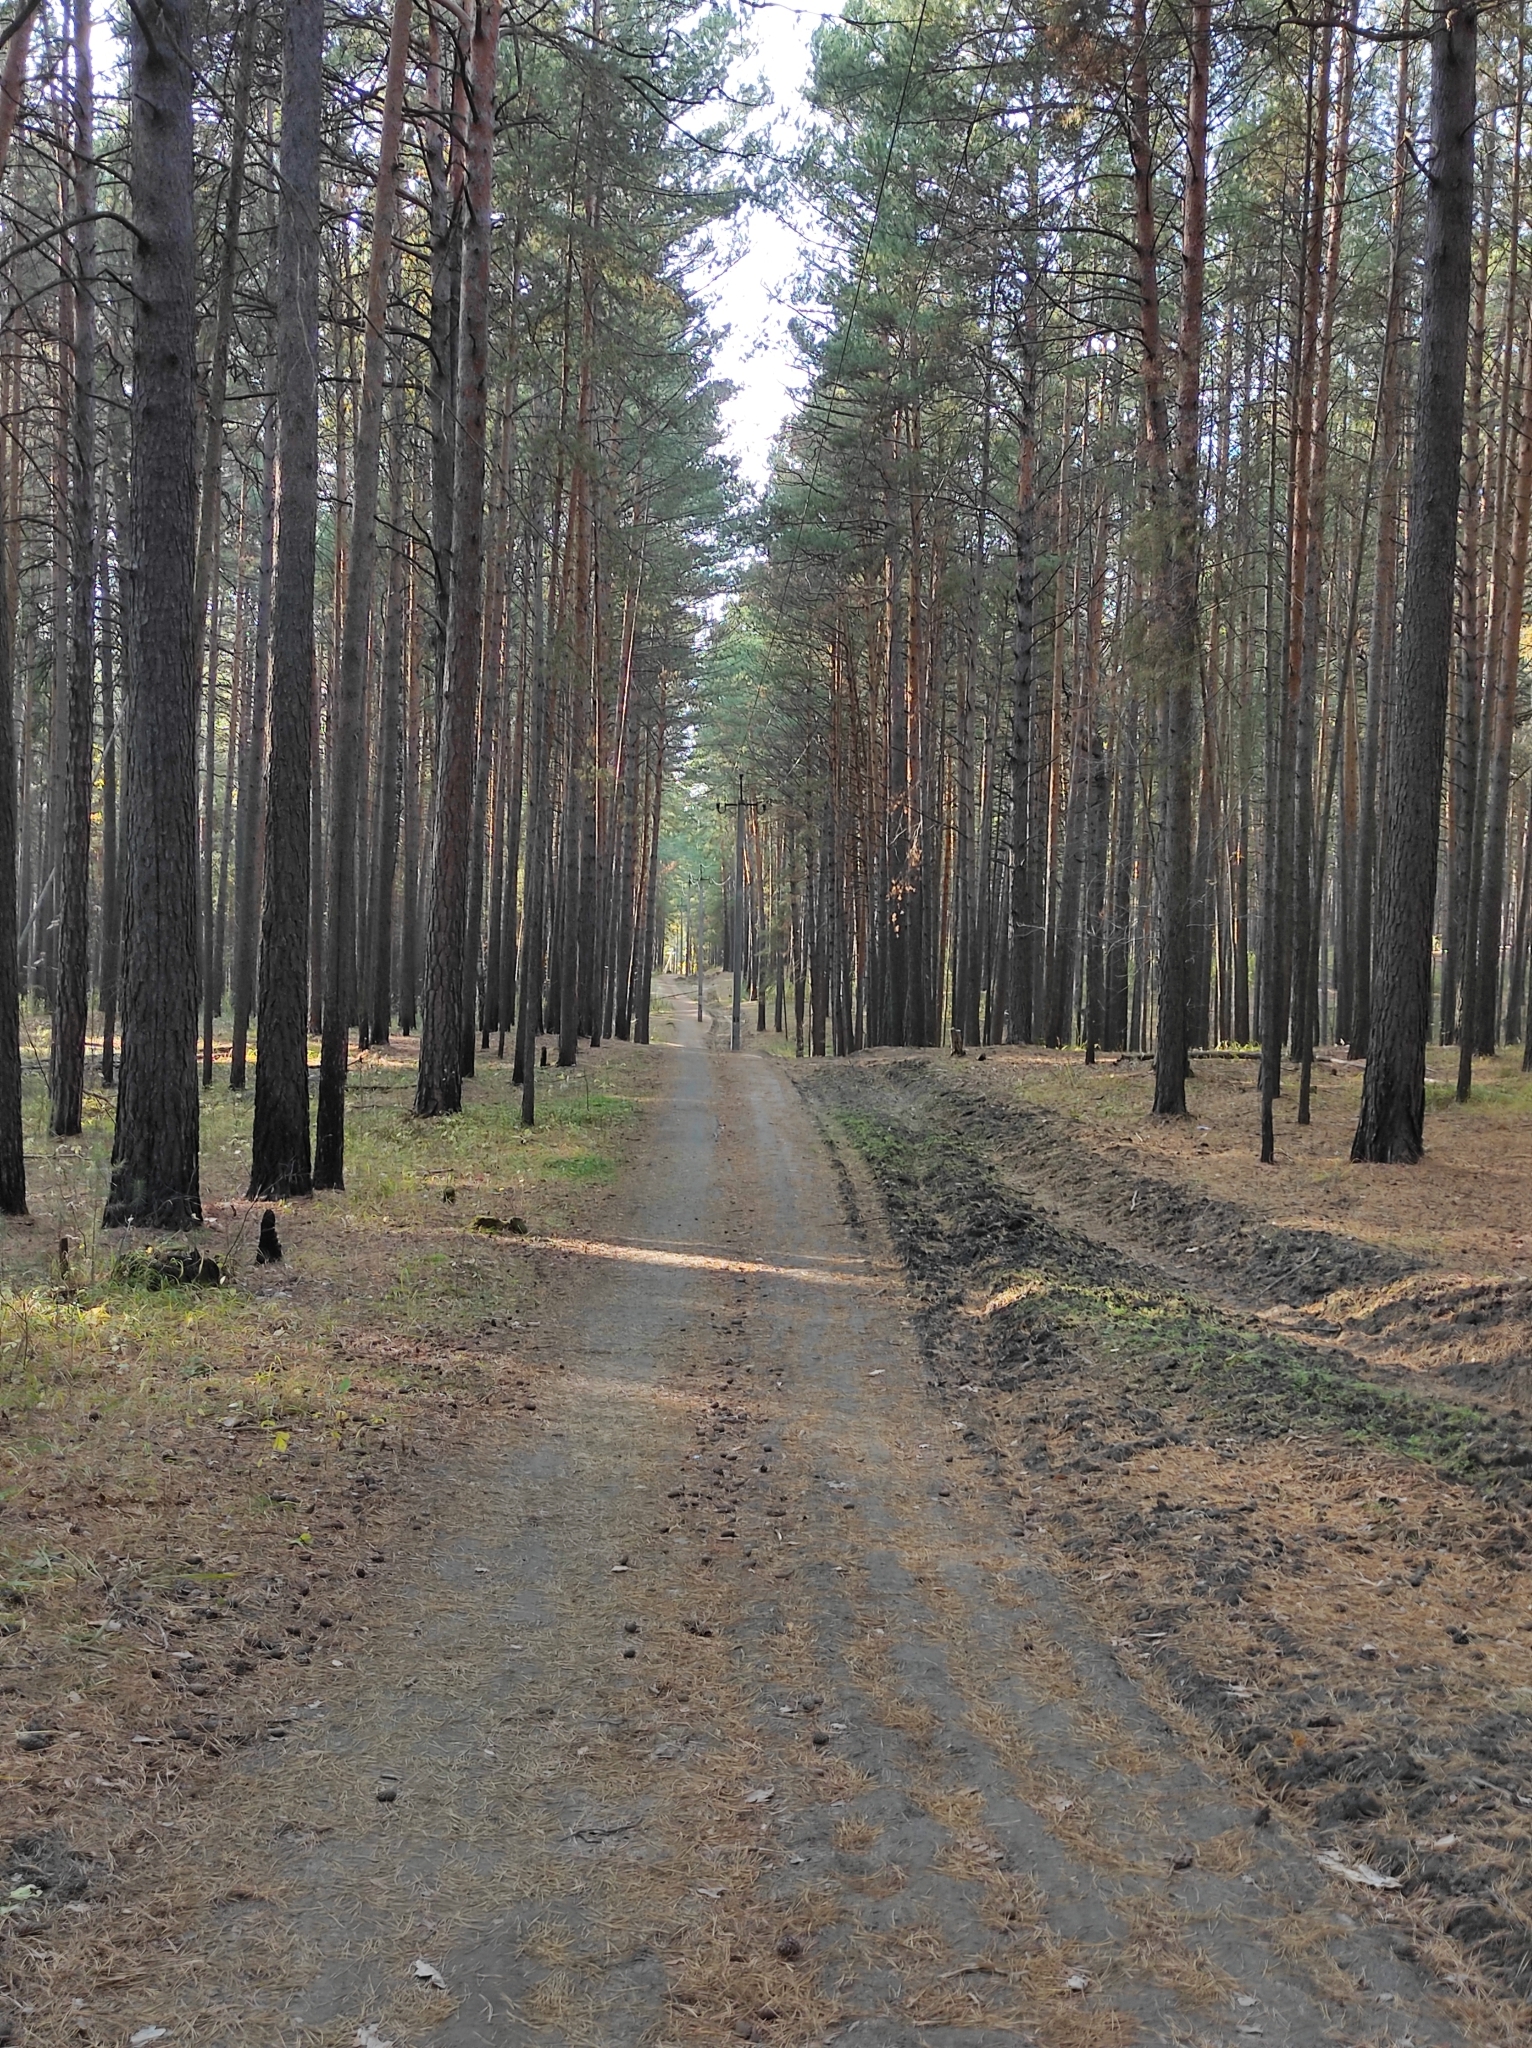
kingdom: Plantae
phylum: Tracheophyta
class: Pinopsida
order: Pinales
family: Pinaceae
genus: Pinus
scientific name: Pinus sylvestris
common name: Scots pine
